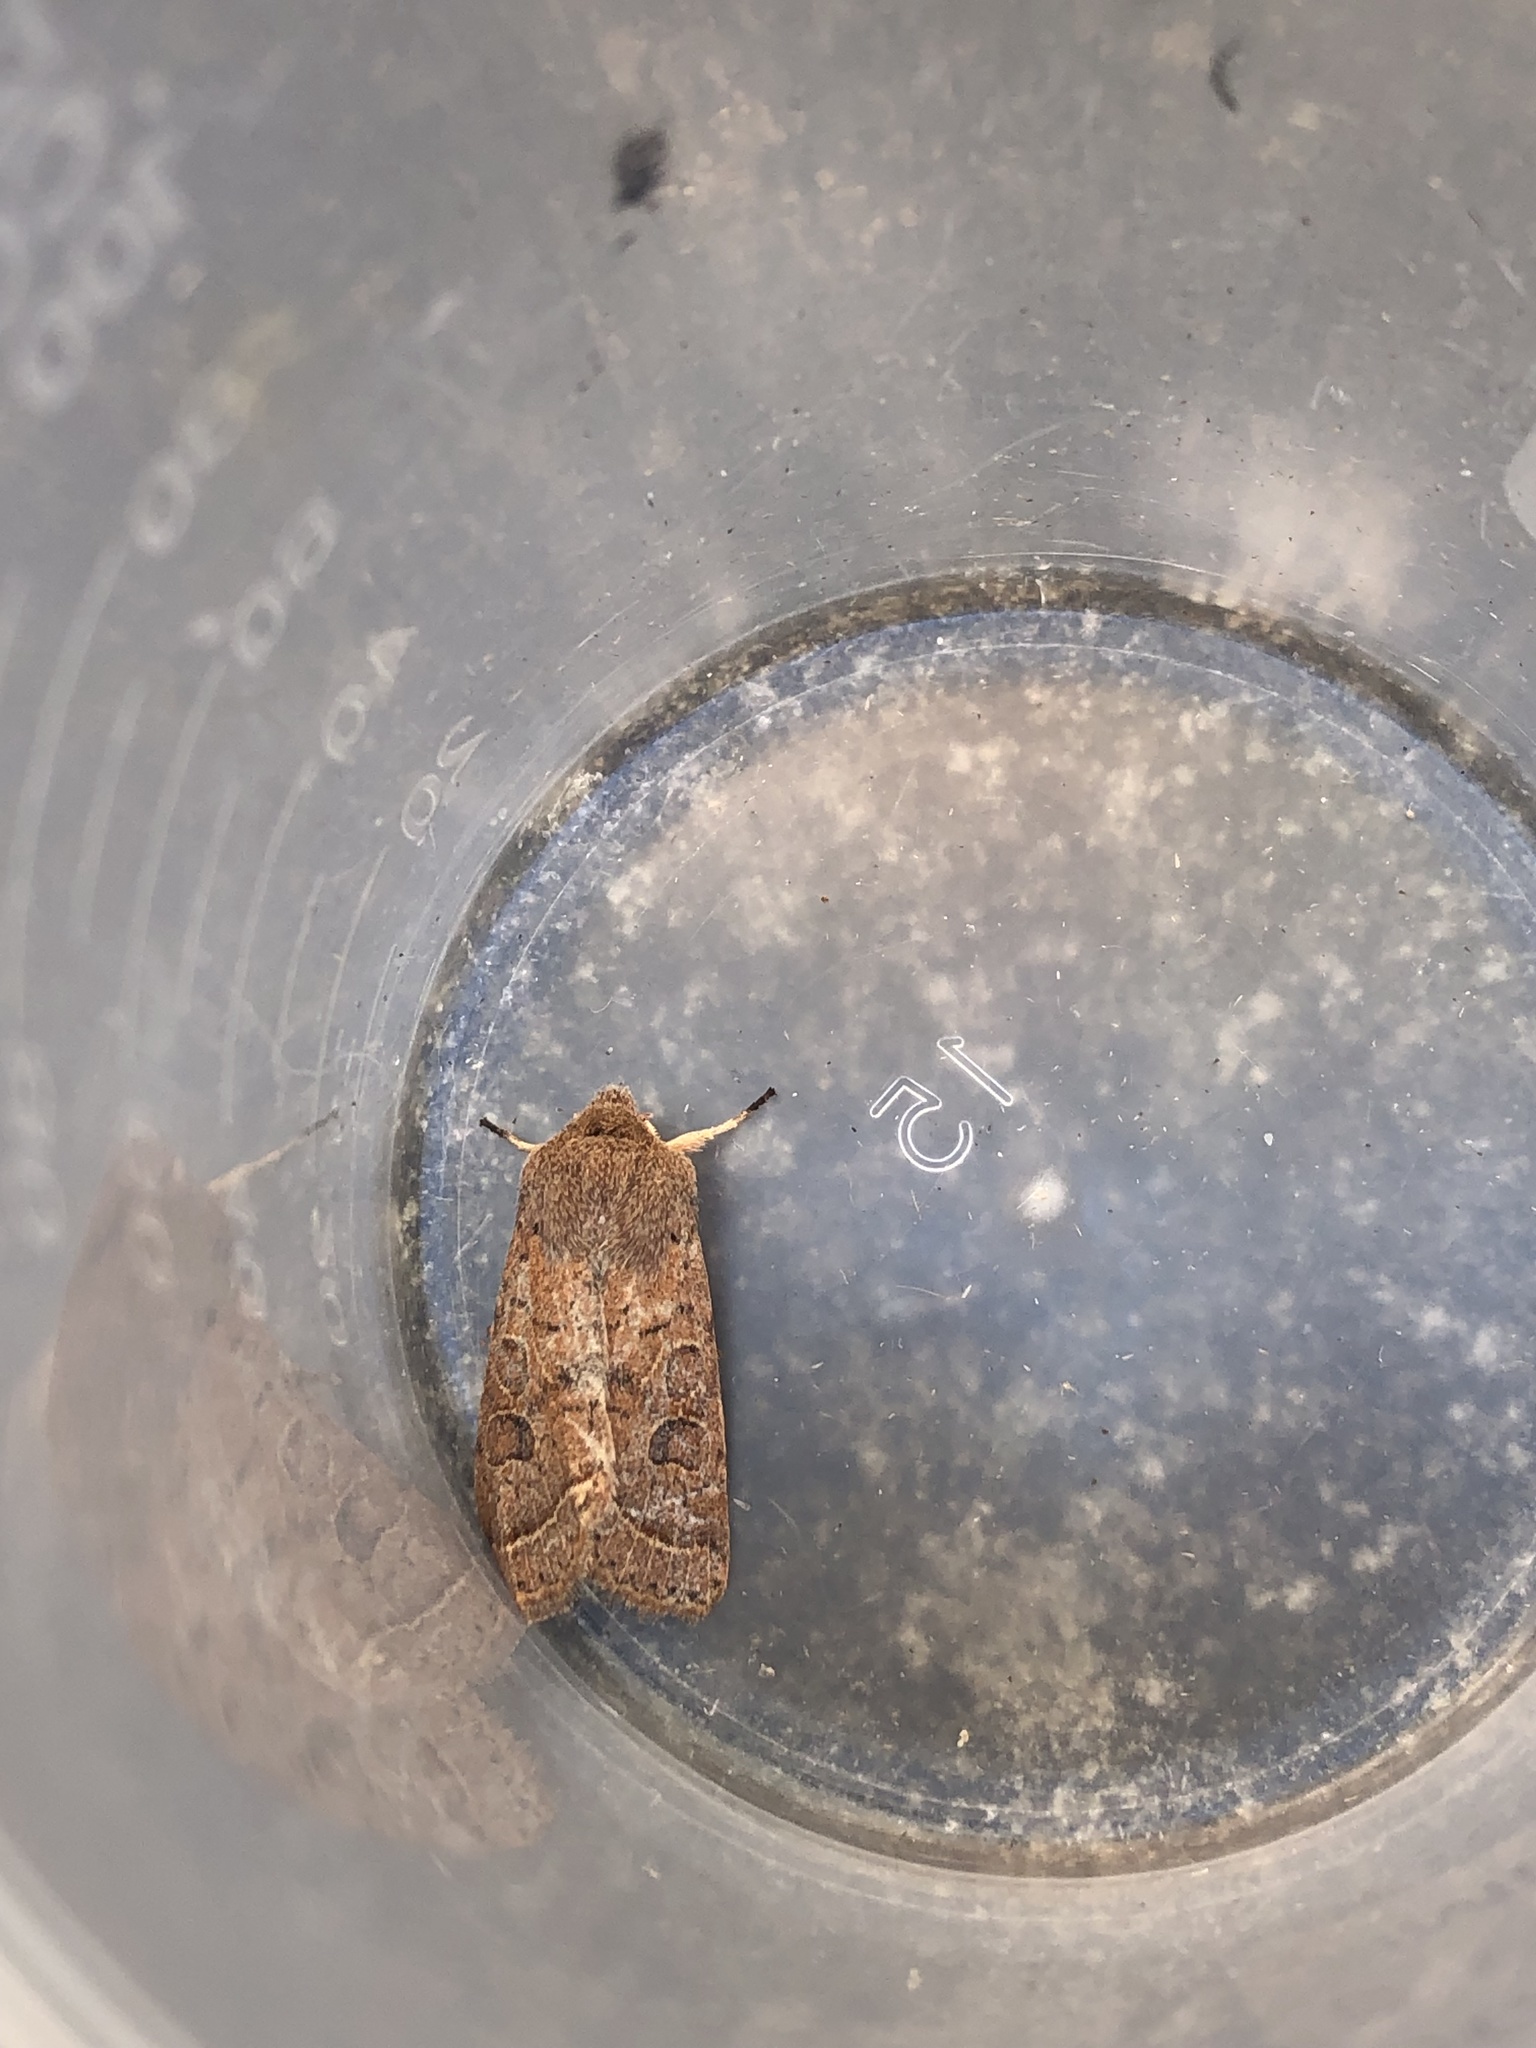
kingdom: Animalia
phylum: Arthropoda
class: Insecta
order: Lepidoptera
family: Noctuidae
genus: Orthosia
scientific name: Orthosia cerasi
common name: Common quaker
